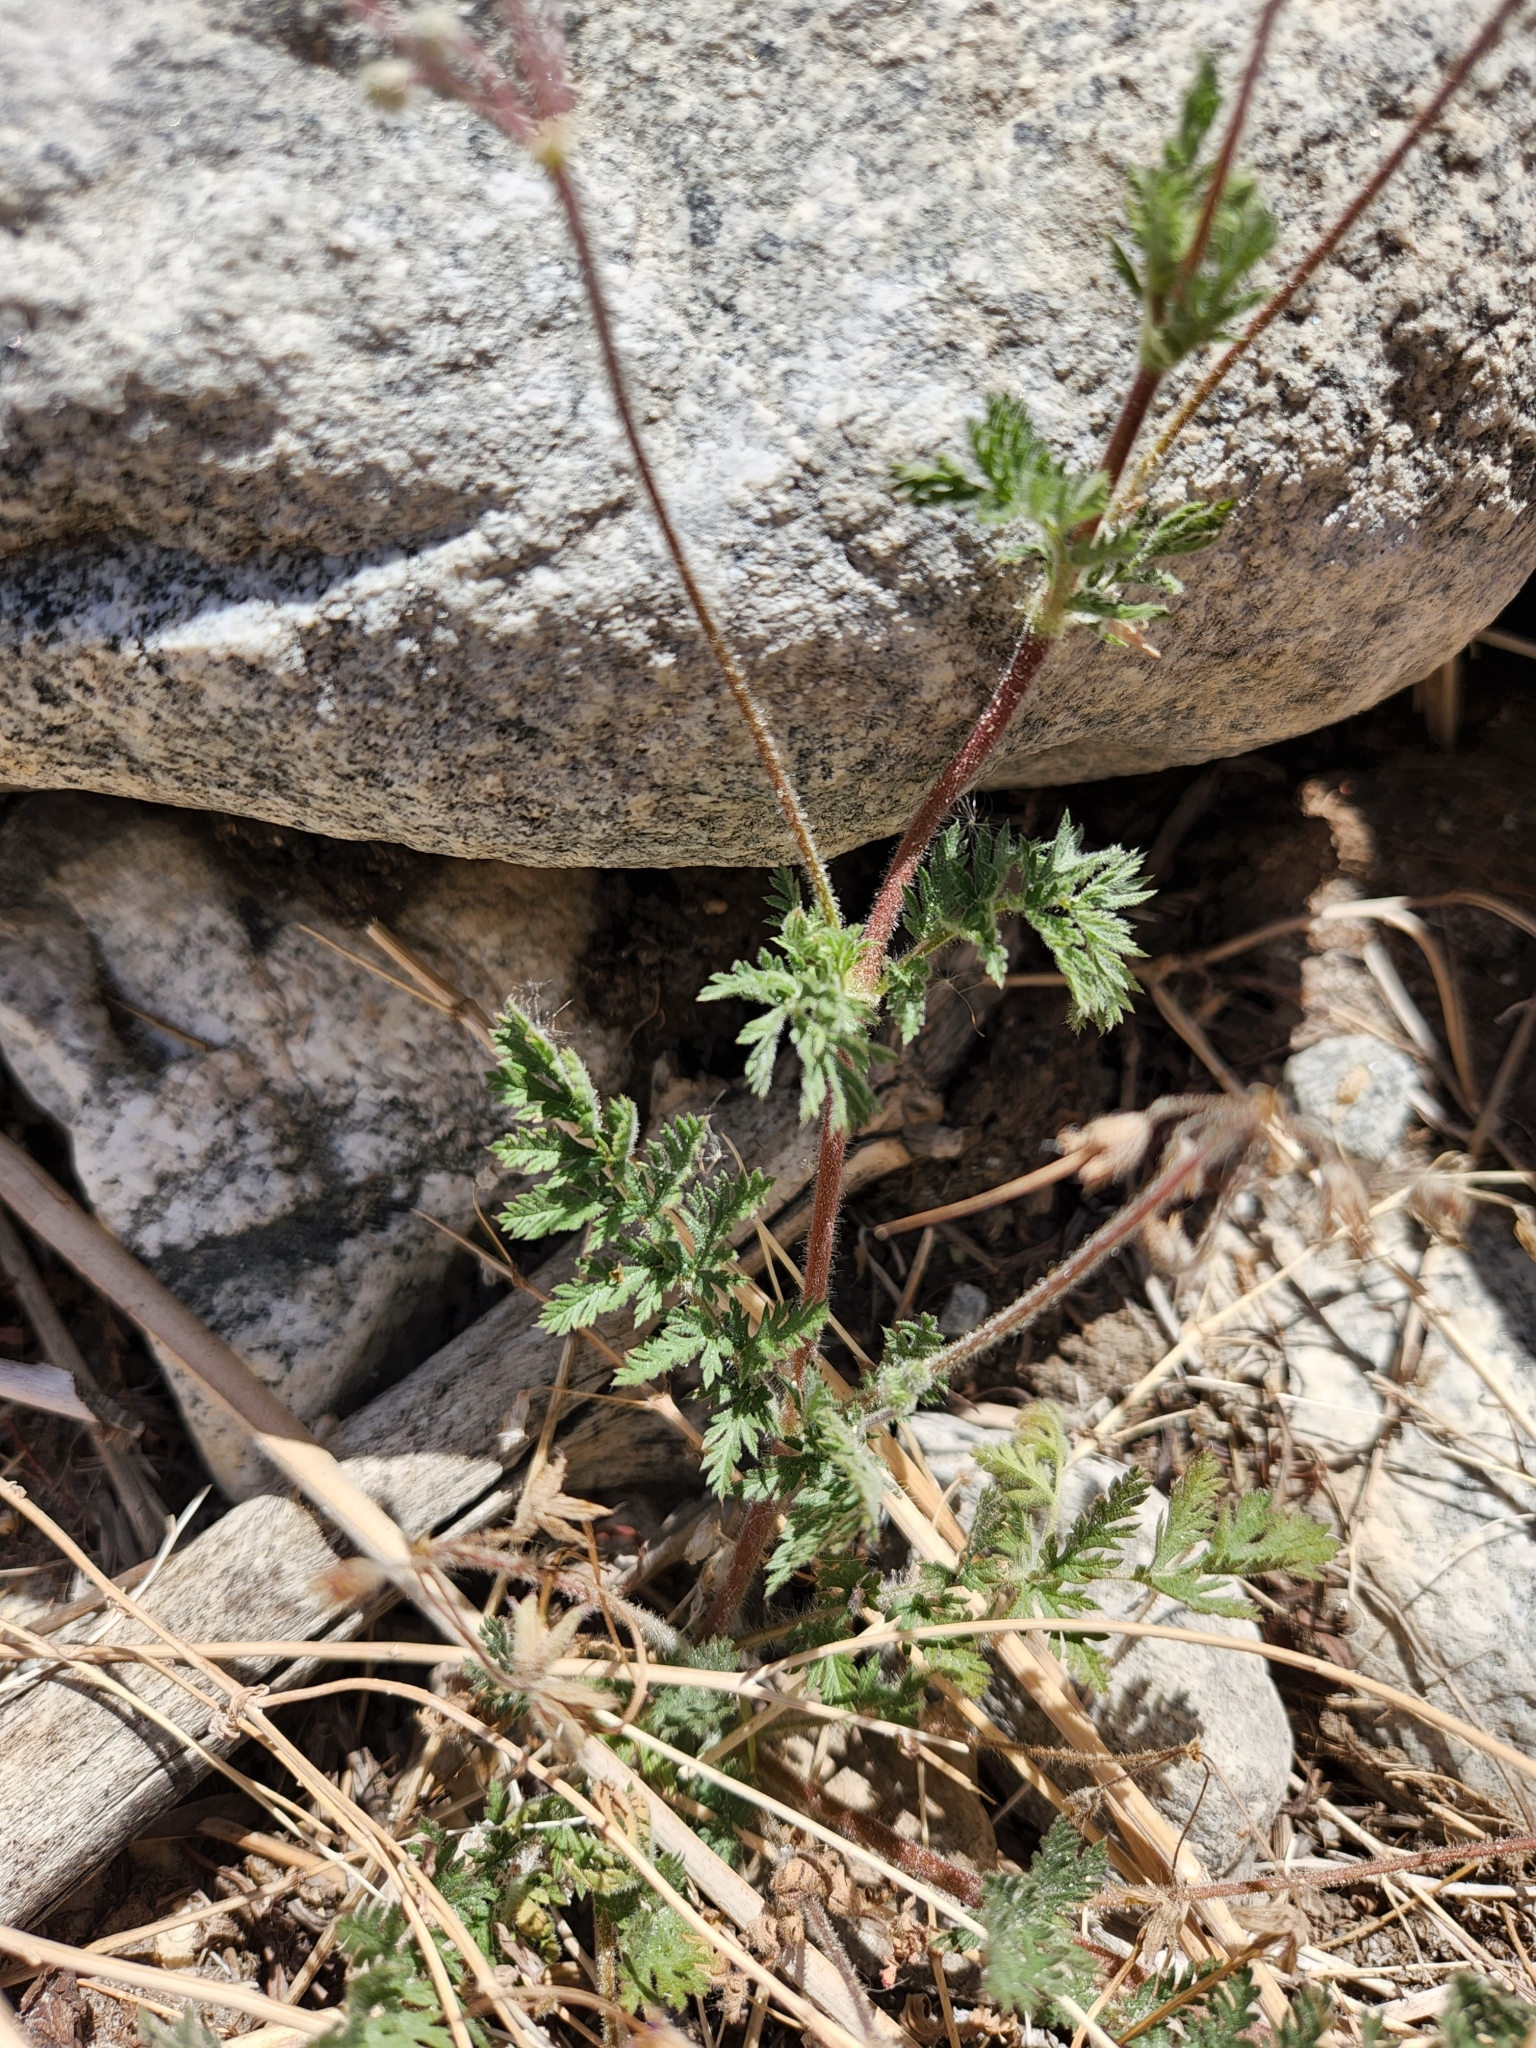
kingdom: Plantae
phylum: Tracheophyta
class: Magnoliopsida
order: Geraniales
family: Geraniaceae
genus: Erodium
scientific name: Erodium cicutarium
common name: Common stork's-bill
